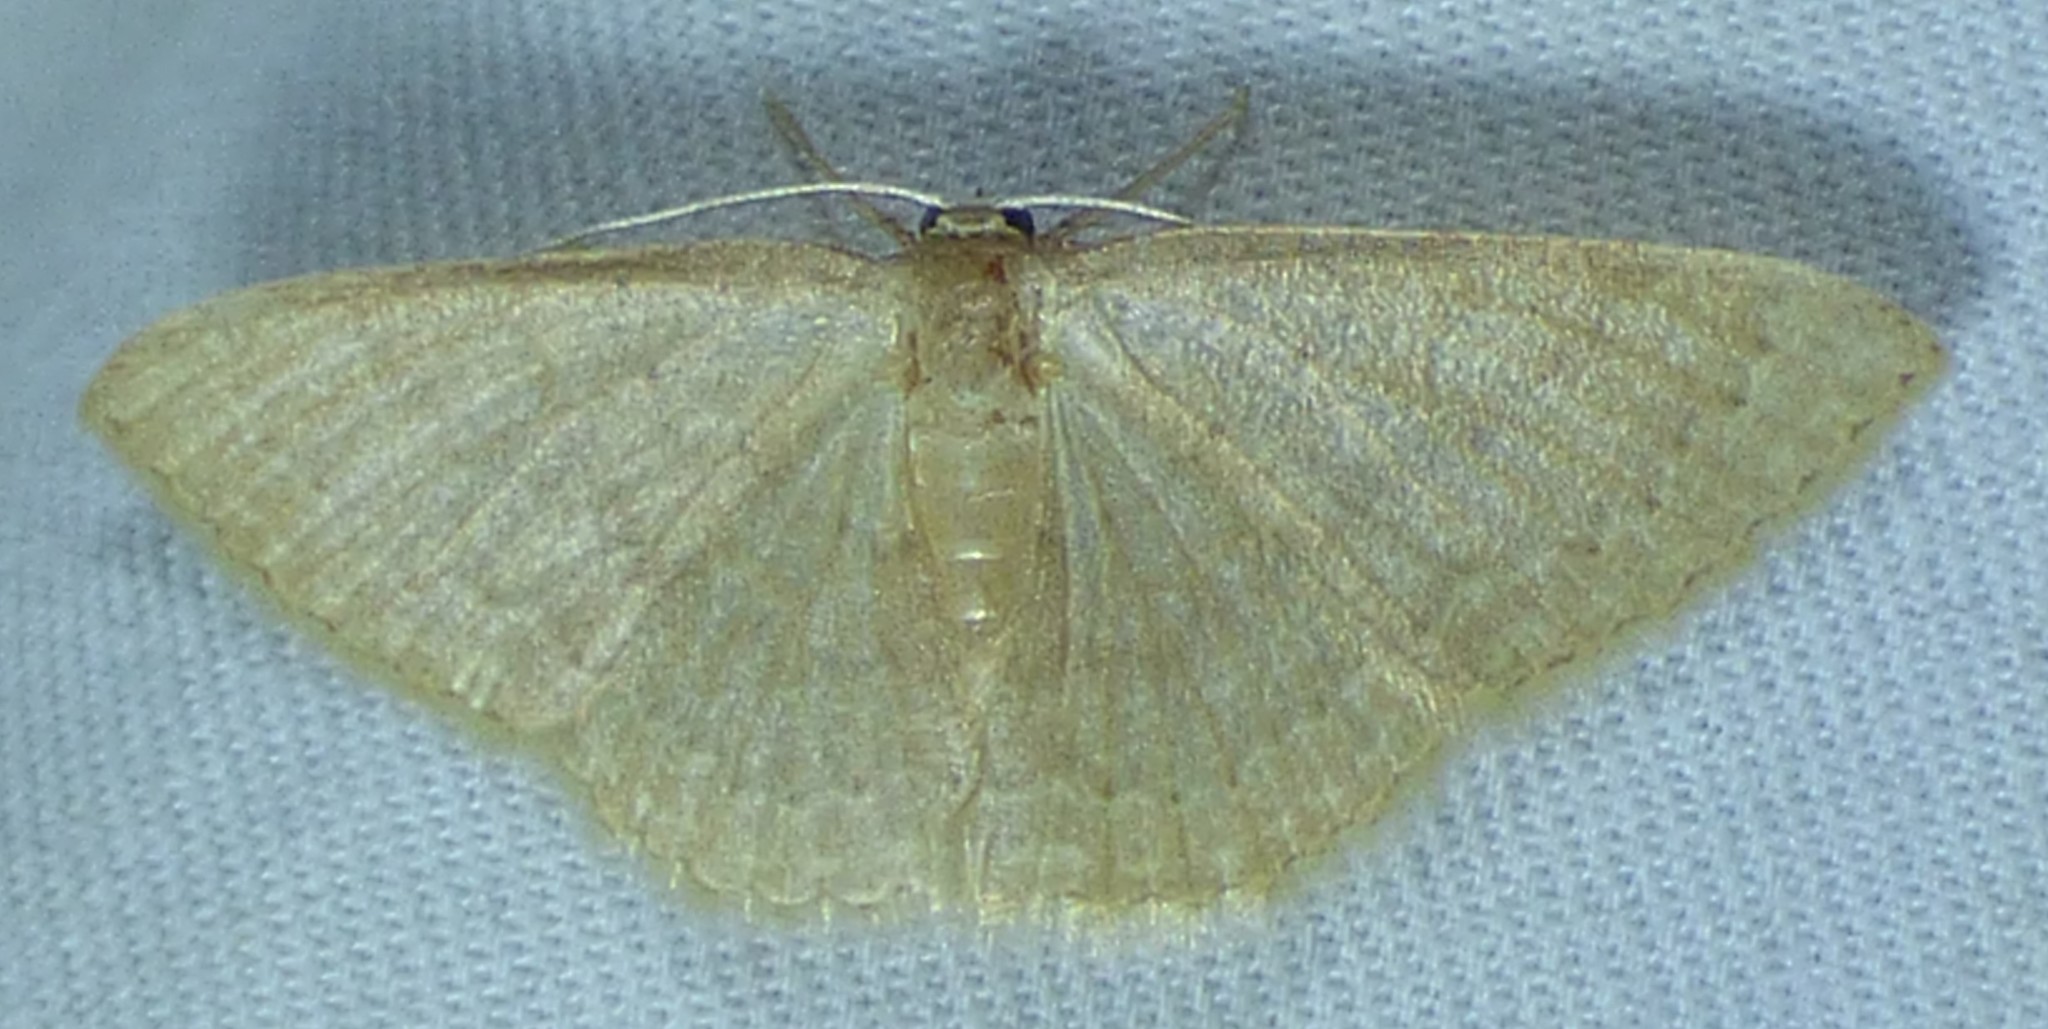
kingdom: Animalia
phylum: Arthropoda
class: Insecta
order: Lepidoptera
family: Geometridae
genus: Pleuroprucha
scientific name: Pleuroprucha insulsaria
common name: Common tan wave
